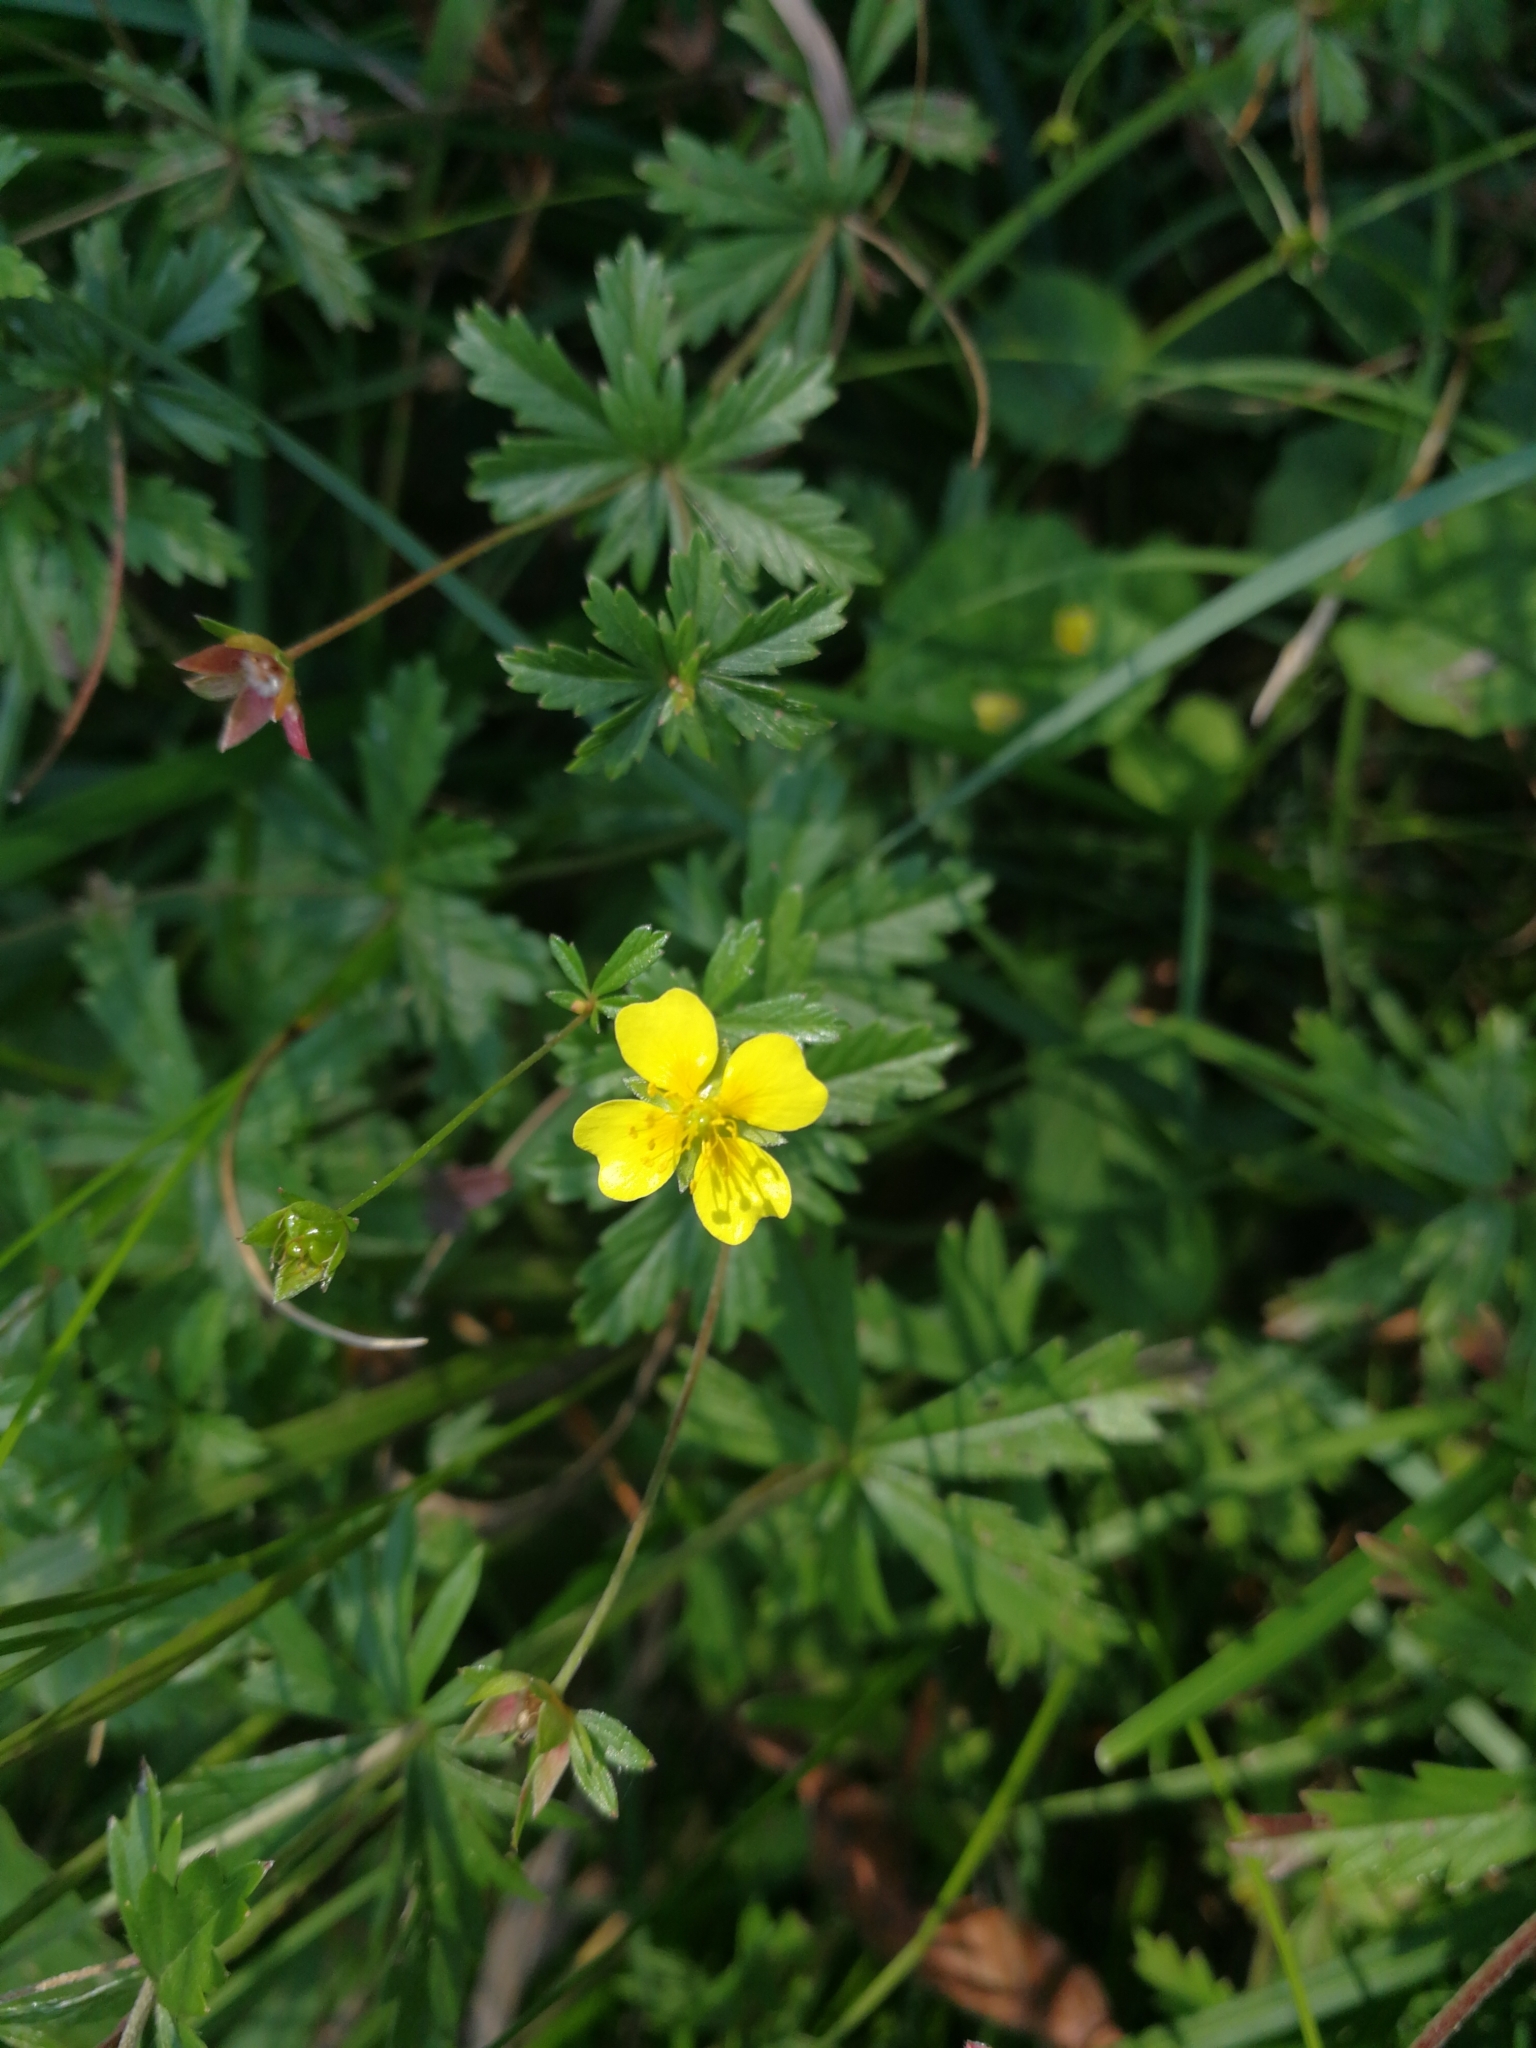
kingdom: Plantae
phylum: Tracheophyta
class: Magnoliopsida
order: Rosales
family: Rosaceae
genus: Potentilla
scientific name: Potentilla erecta
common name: Tormentil
